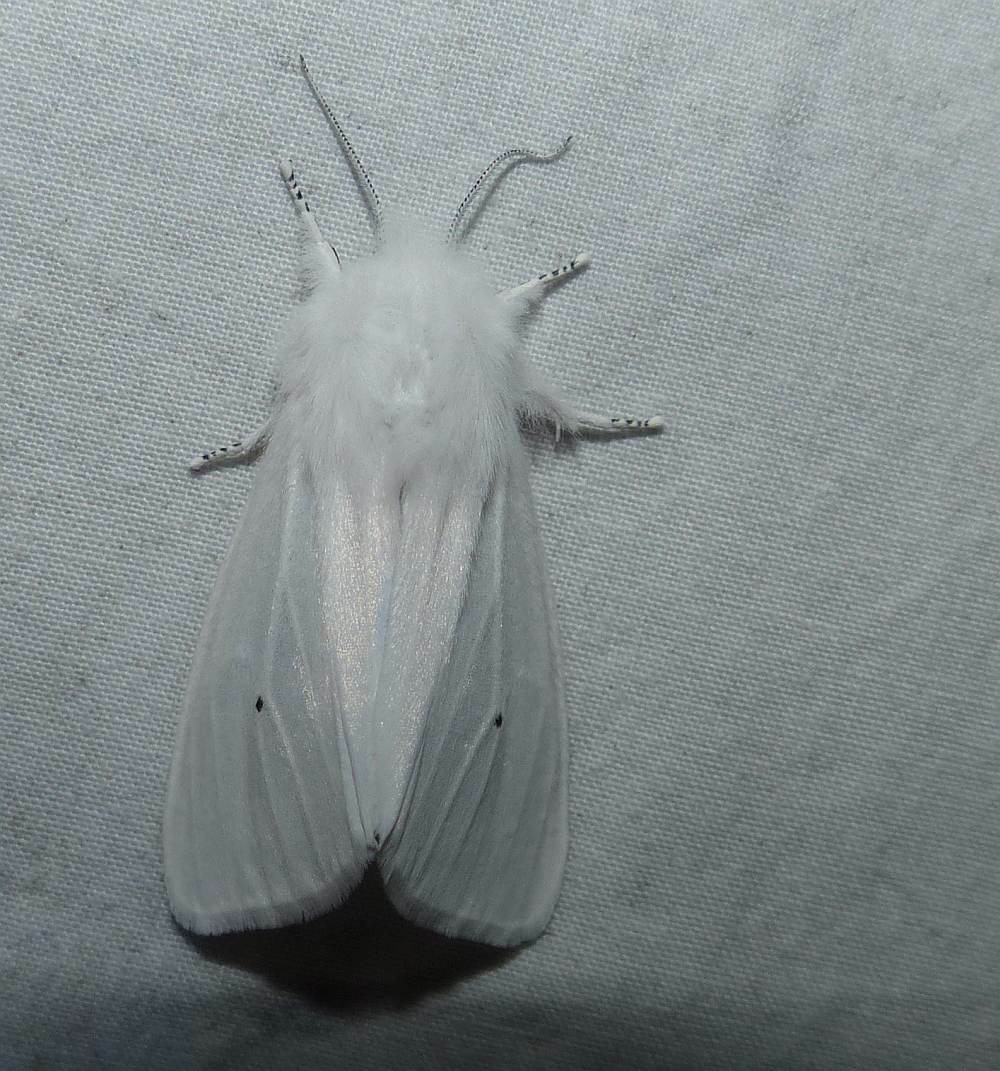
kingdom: Animalia
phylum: Arthropoda
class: Insecta
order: Lepidoptera
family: Erebidae
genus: Spilosoma
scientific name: Spilosoma virginica
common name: Virginia tiger moth
